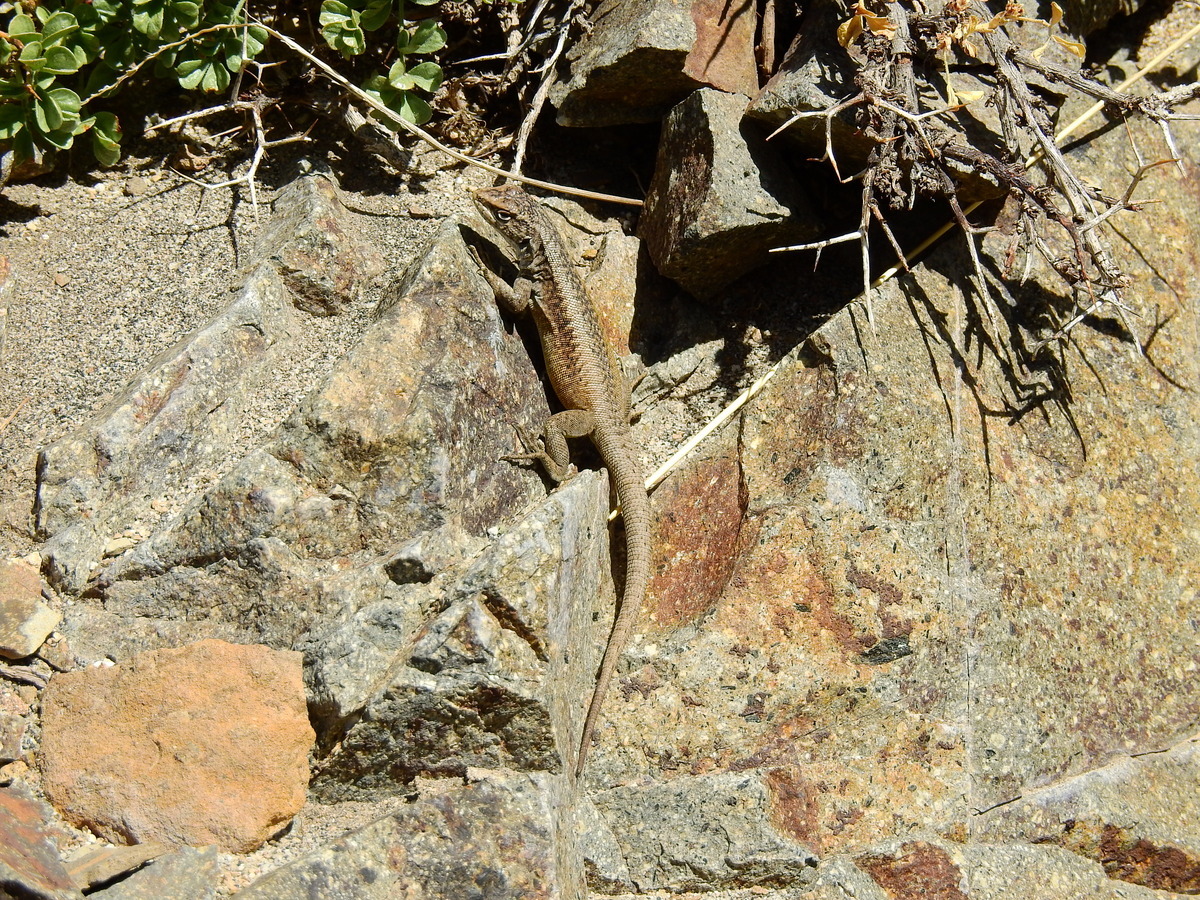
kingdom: Animalia
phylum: Chordata
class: Squamata
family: Liolaemidae
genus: Liolaemus
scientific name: Liolaemus smaug
